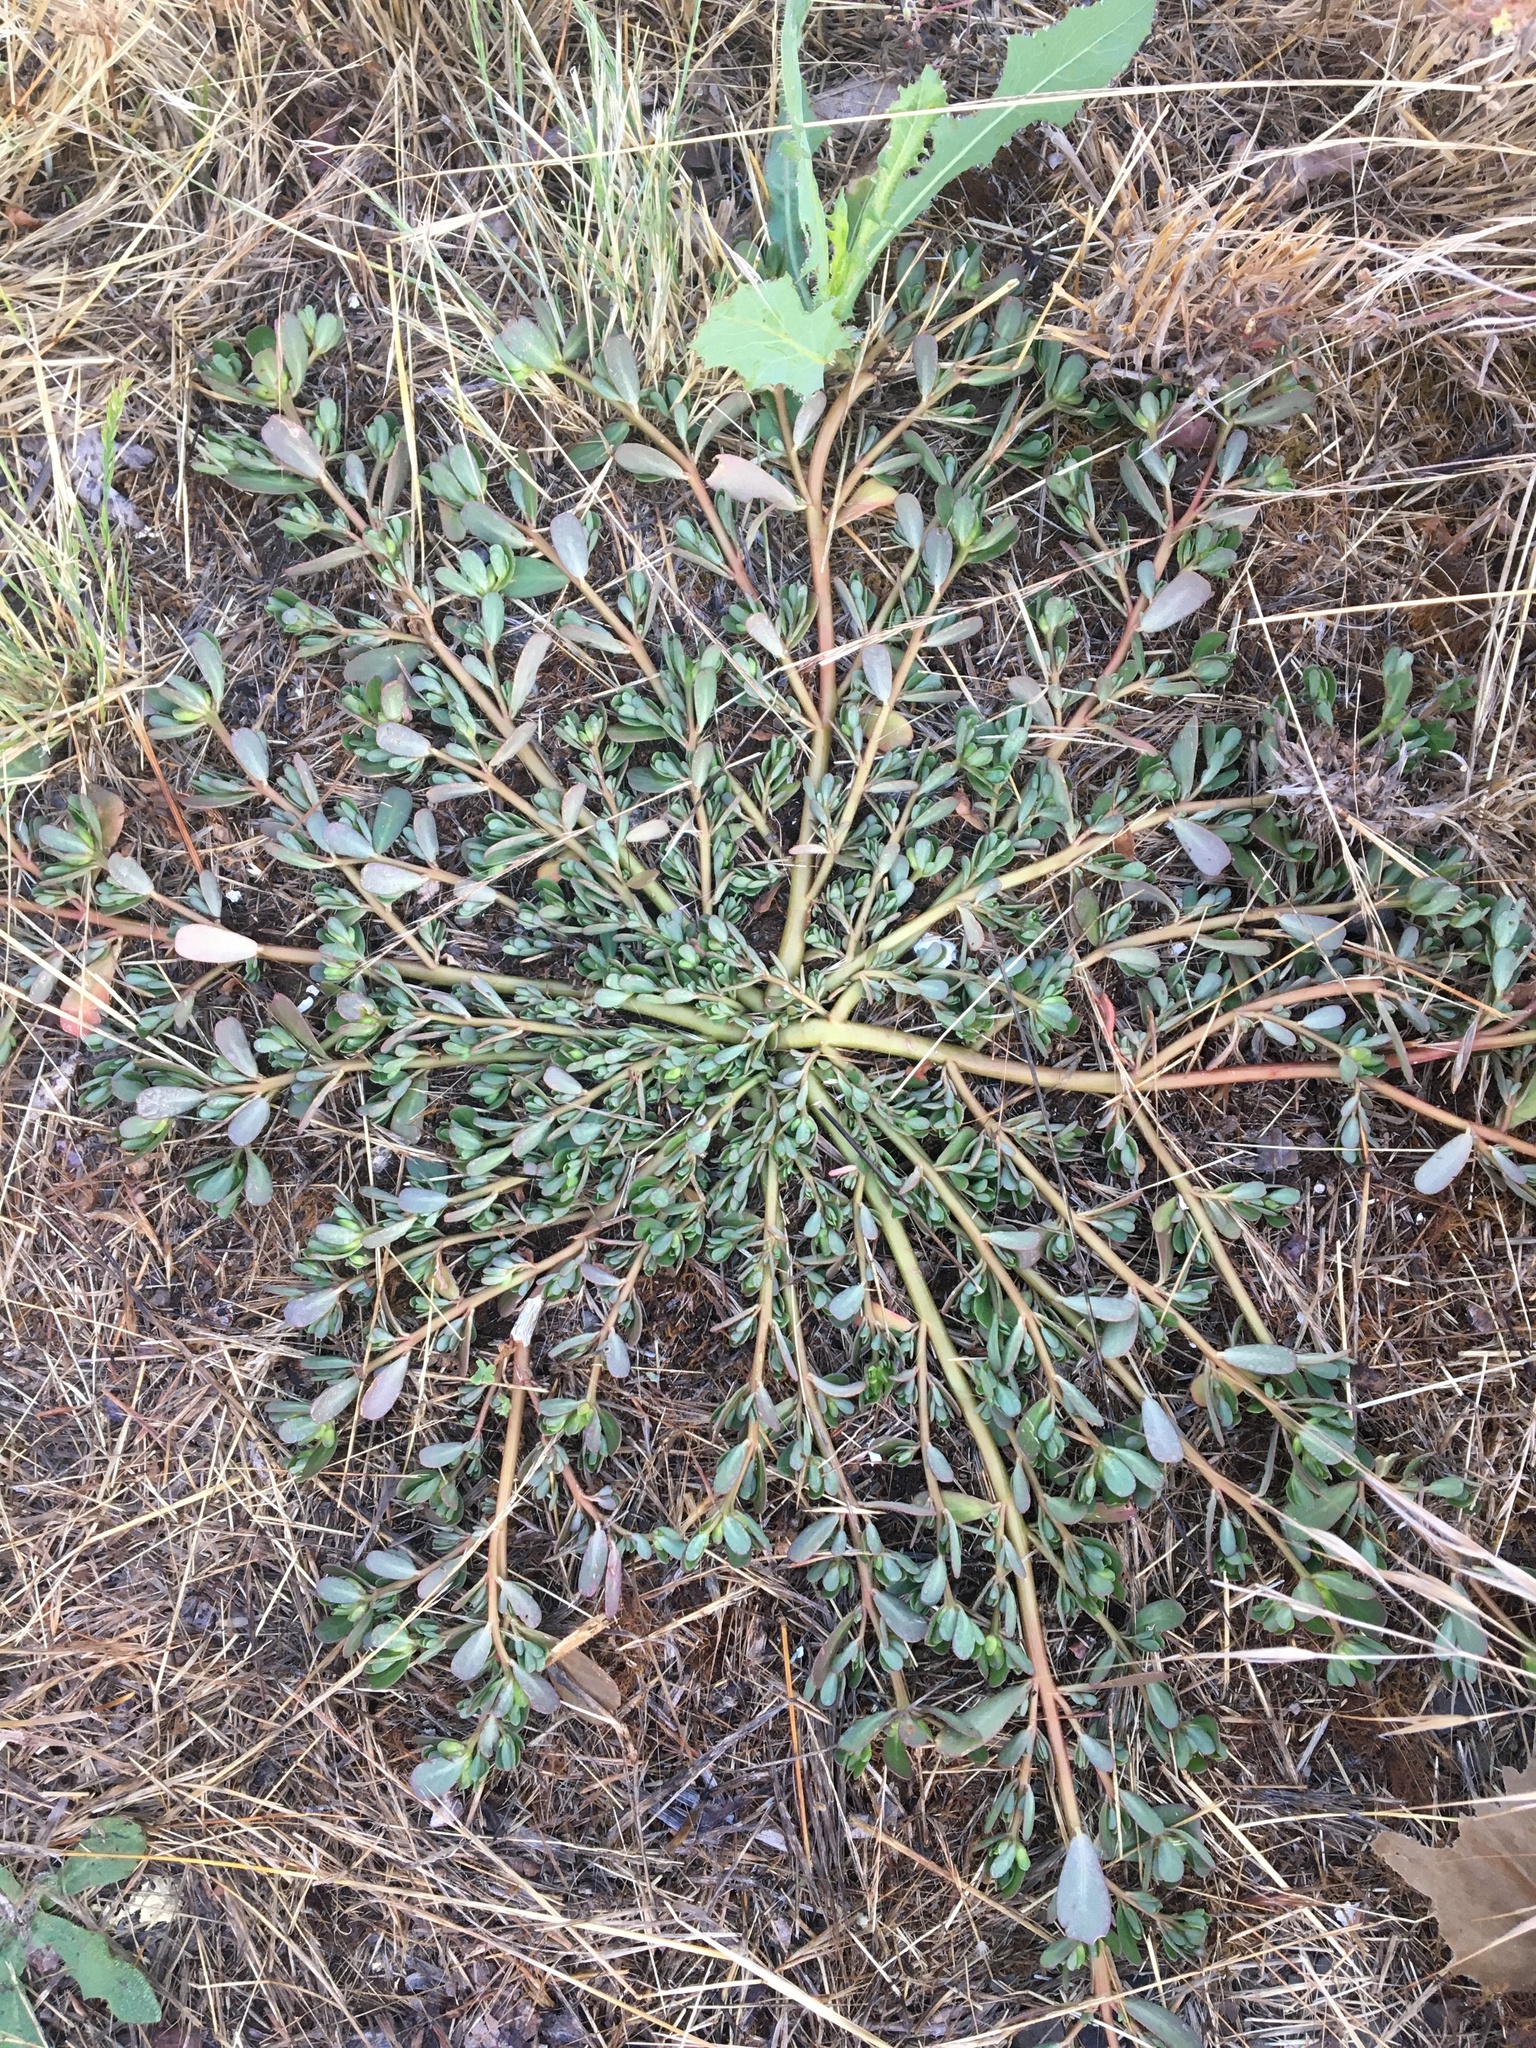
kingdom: Plantae
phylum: Tracheophyta
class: Magnoliopsida
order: Caryophyllales
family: Portulacaceae
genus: Portulaca
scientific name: Portulaca oleracea
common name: Common purslane
